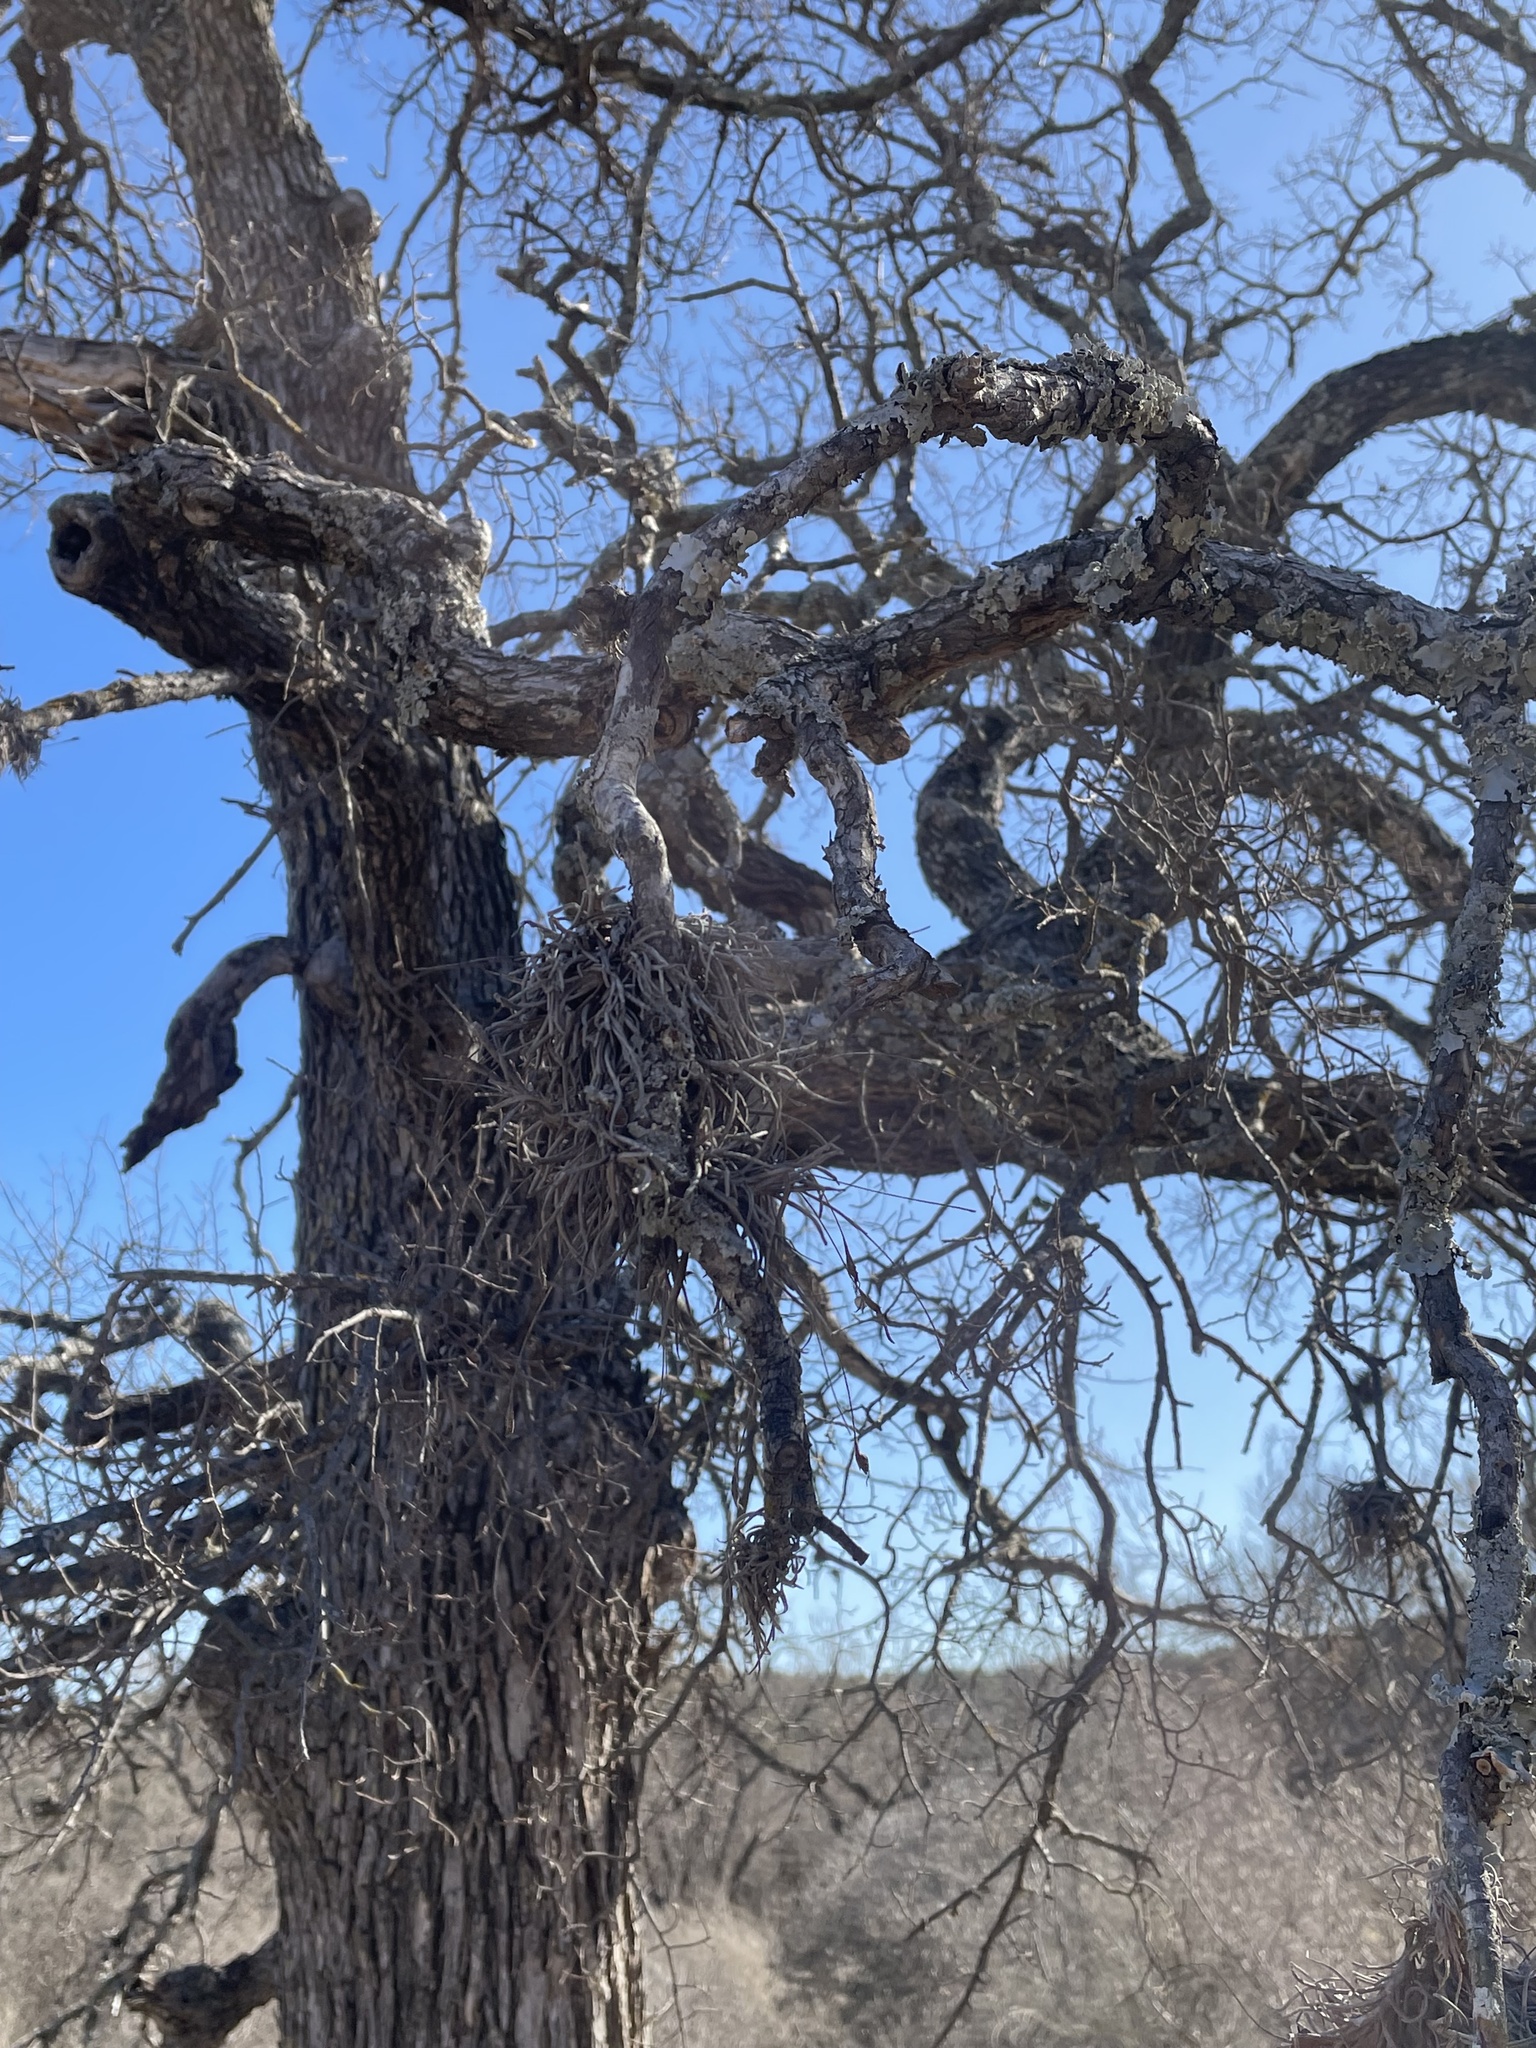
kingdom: Plantae
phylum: Tracheophyta
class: Liliopsida
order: Poales
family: Bromeliaceae
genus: Tillandsia
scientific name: Tillandsia recurvata
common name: Small ballmoss
